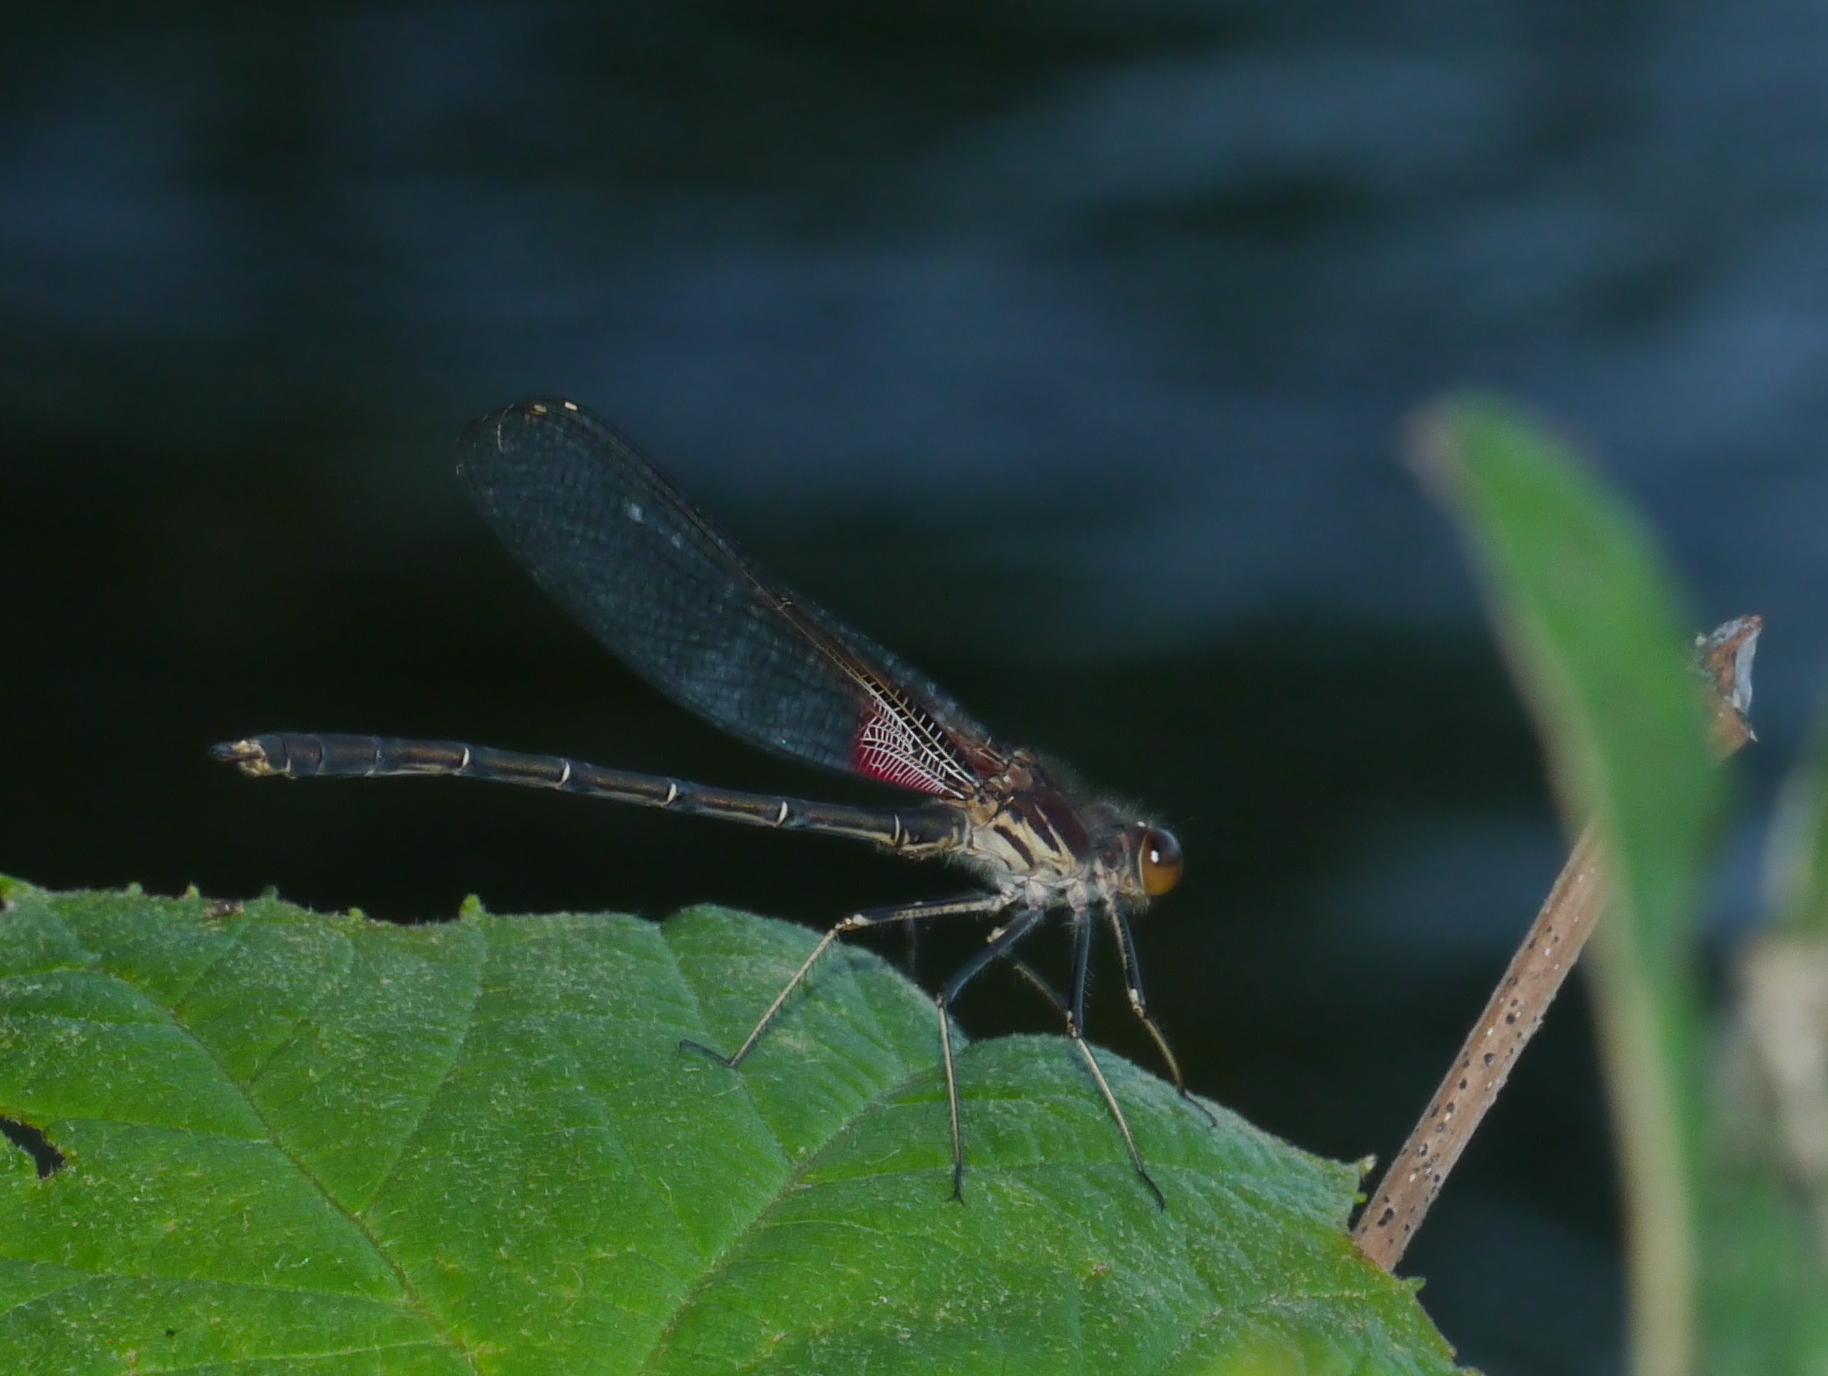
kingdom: Animalia
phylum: Arthropoda
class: Insecta
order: Odonata
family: Calopterygidae
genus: Hetaerina
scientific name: Hetaerina americana
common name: American rubyspot
